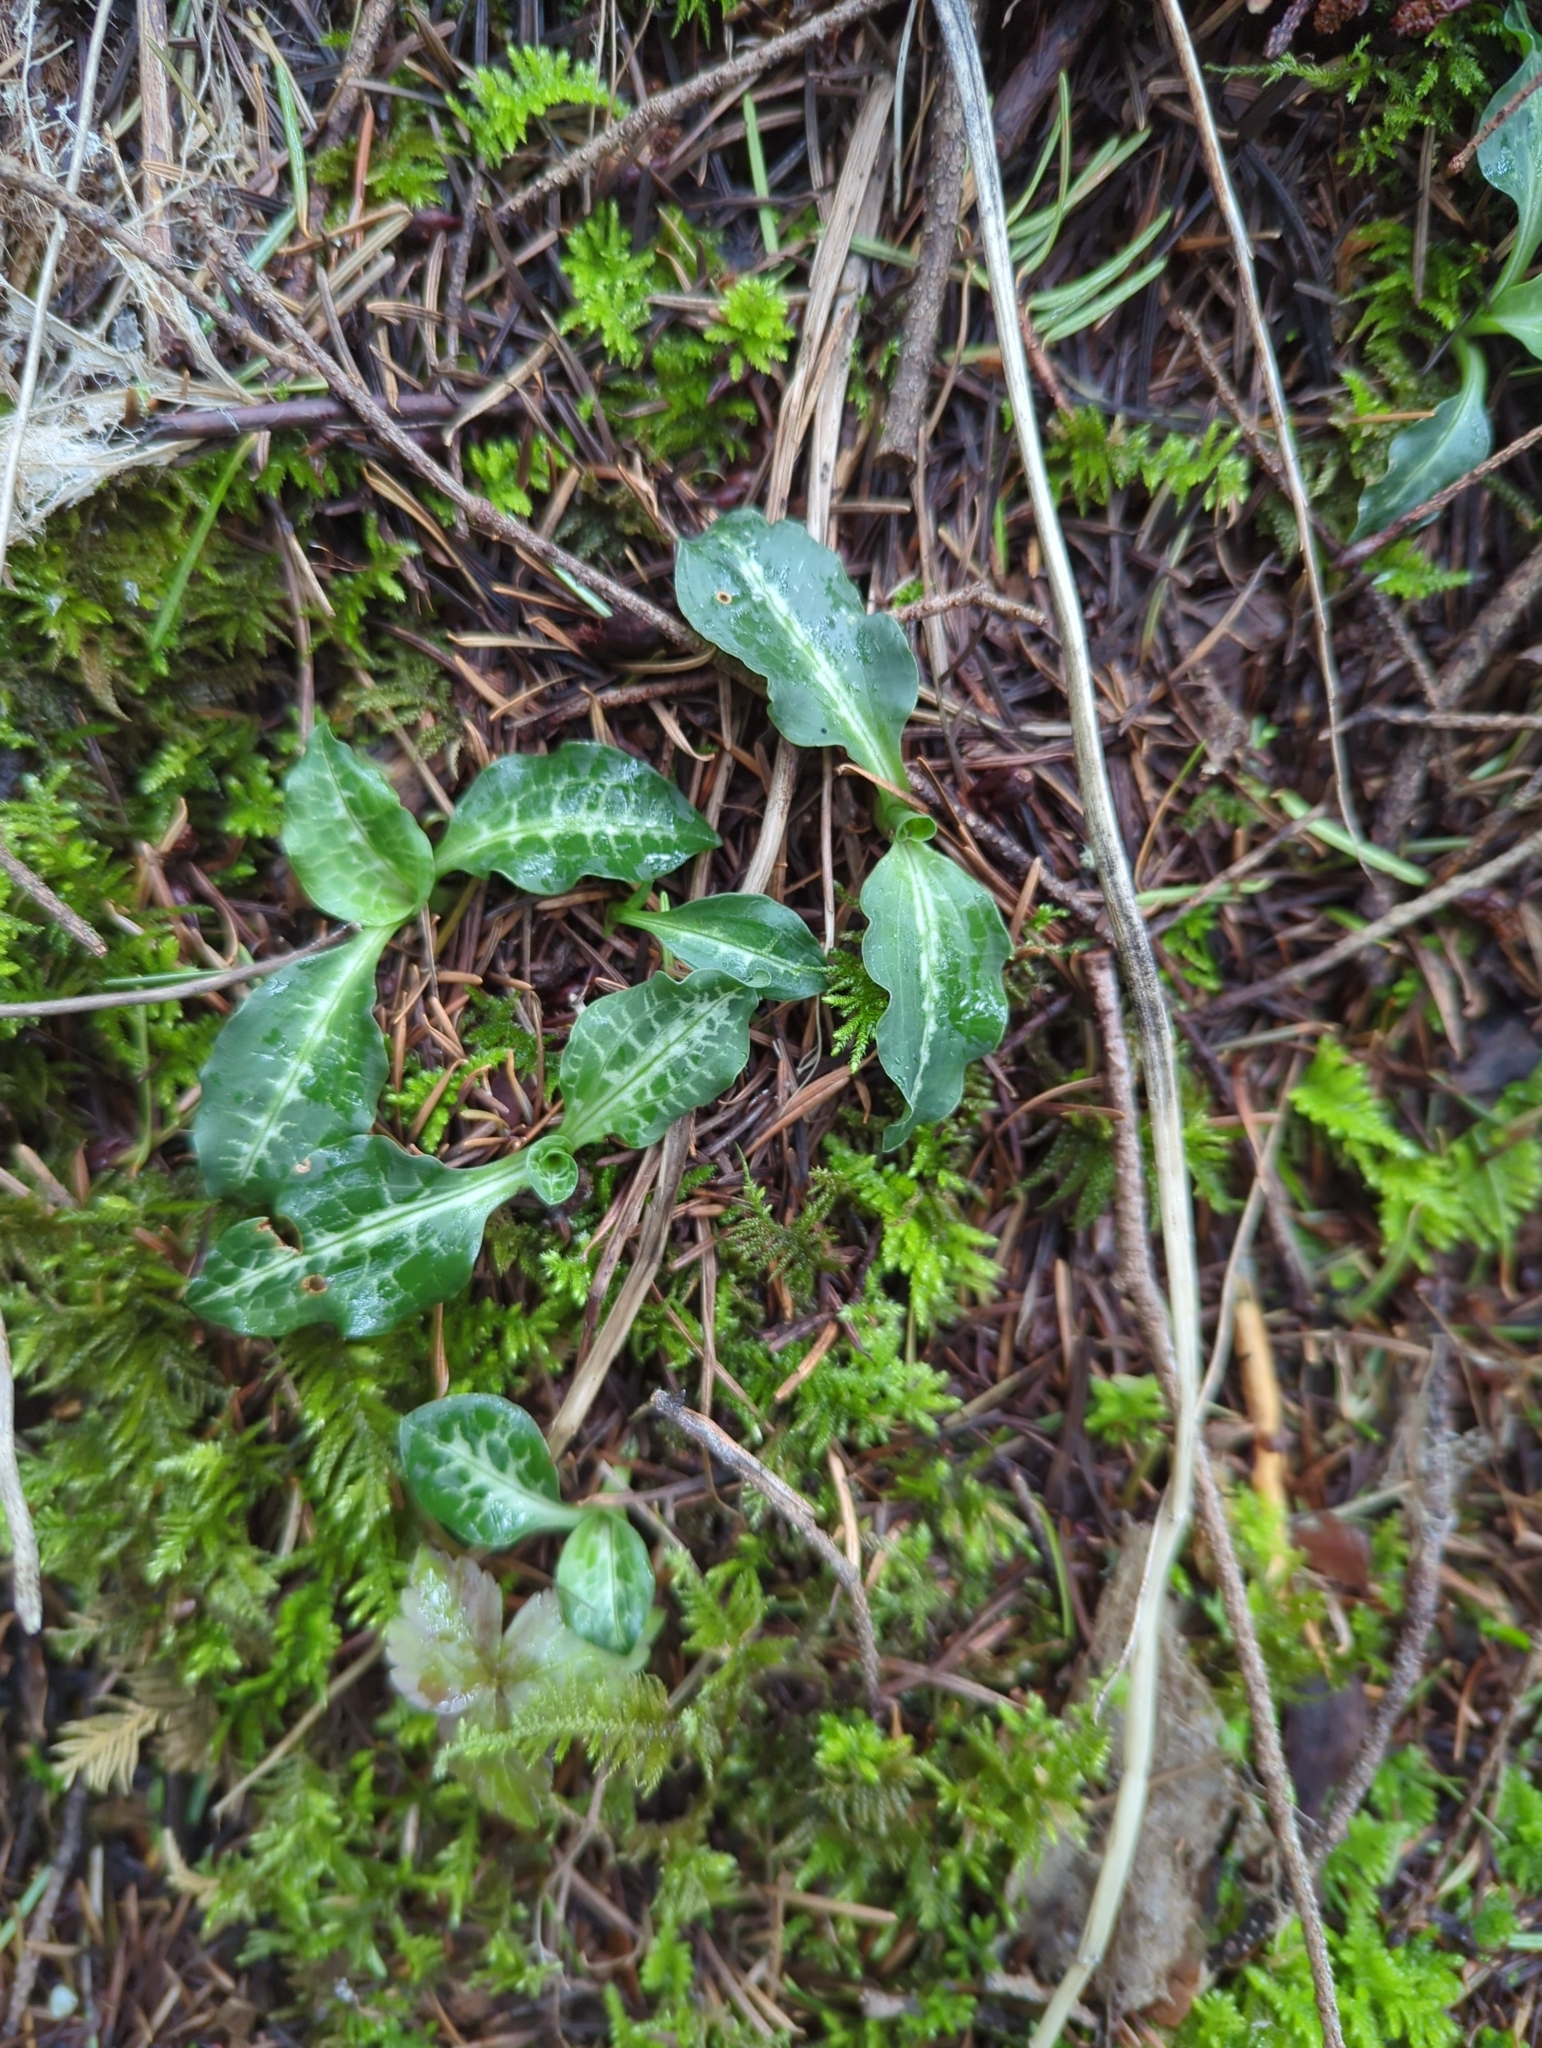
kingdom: Plantae
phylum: Tracheophyta
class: Liliopsida
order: Asparagales
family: Orchidaceae
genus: Goodyera
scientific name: Goodyera oblongifolia
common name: Giant rattlesnake-plantain
